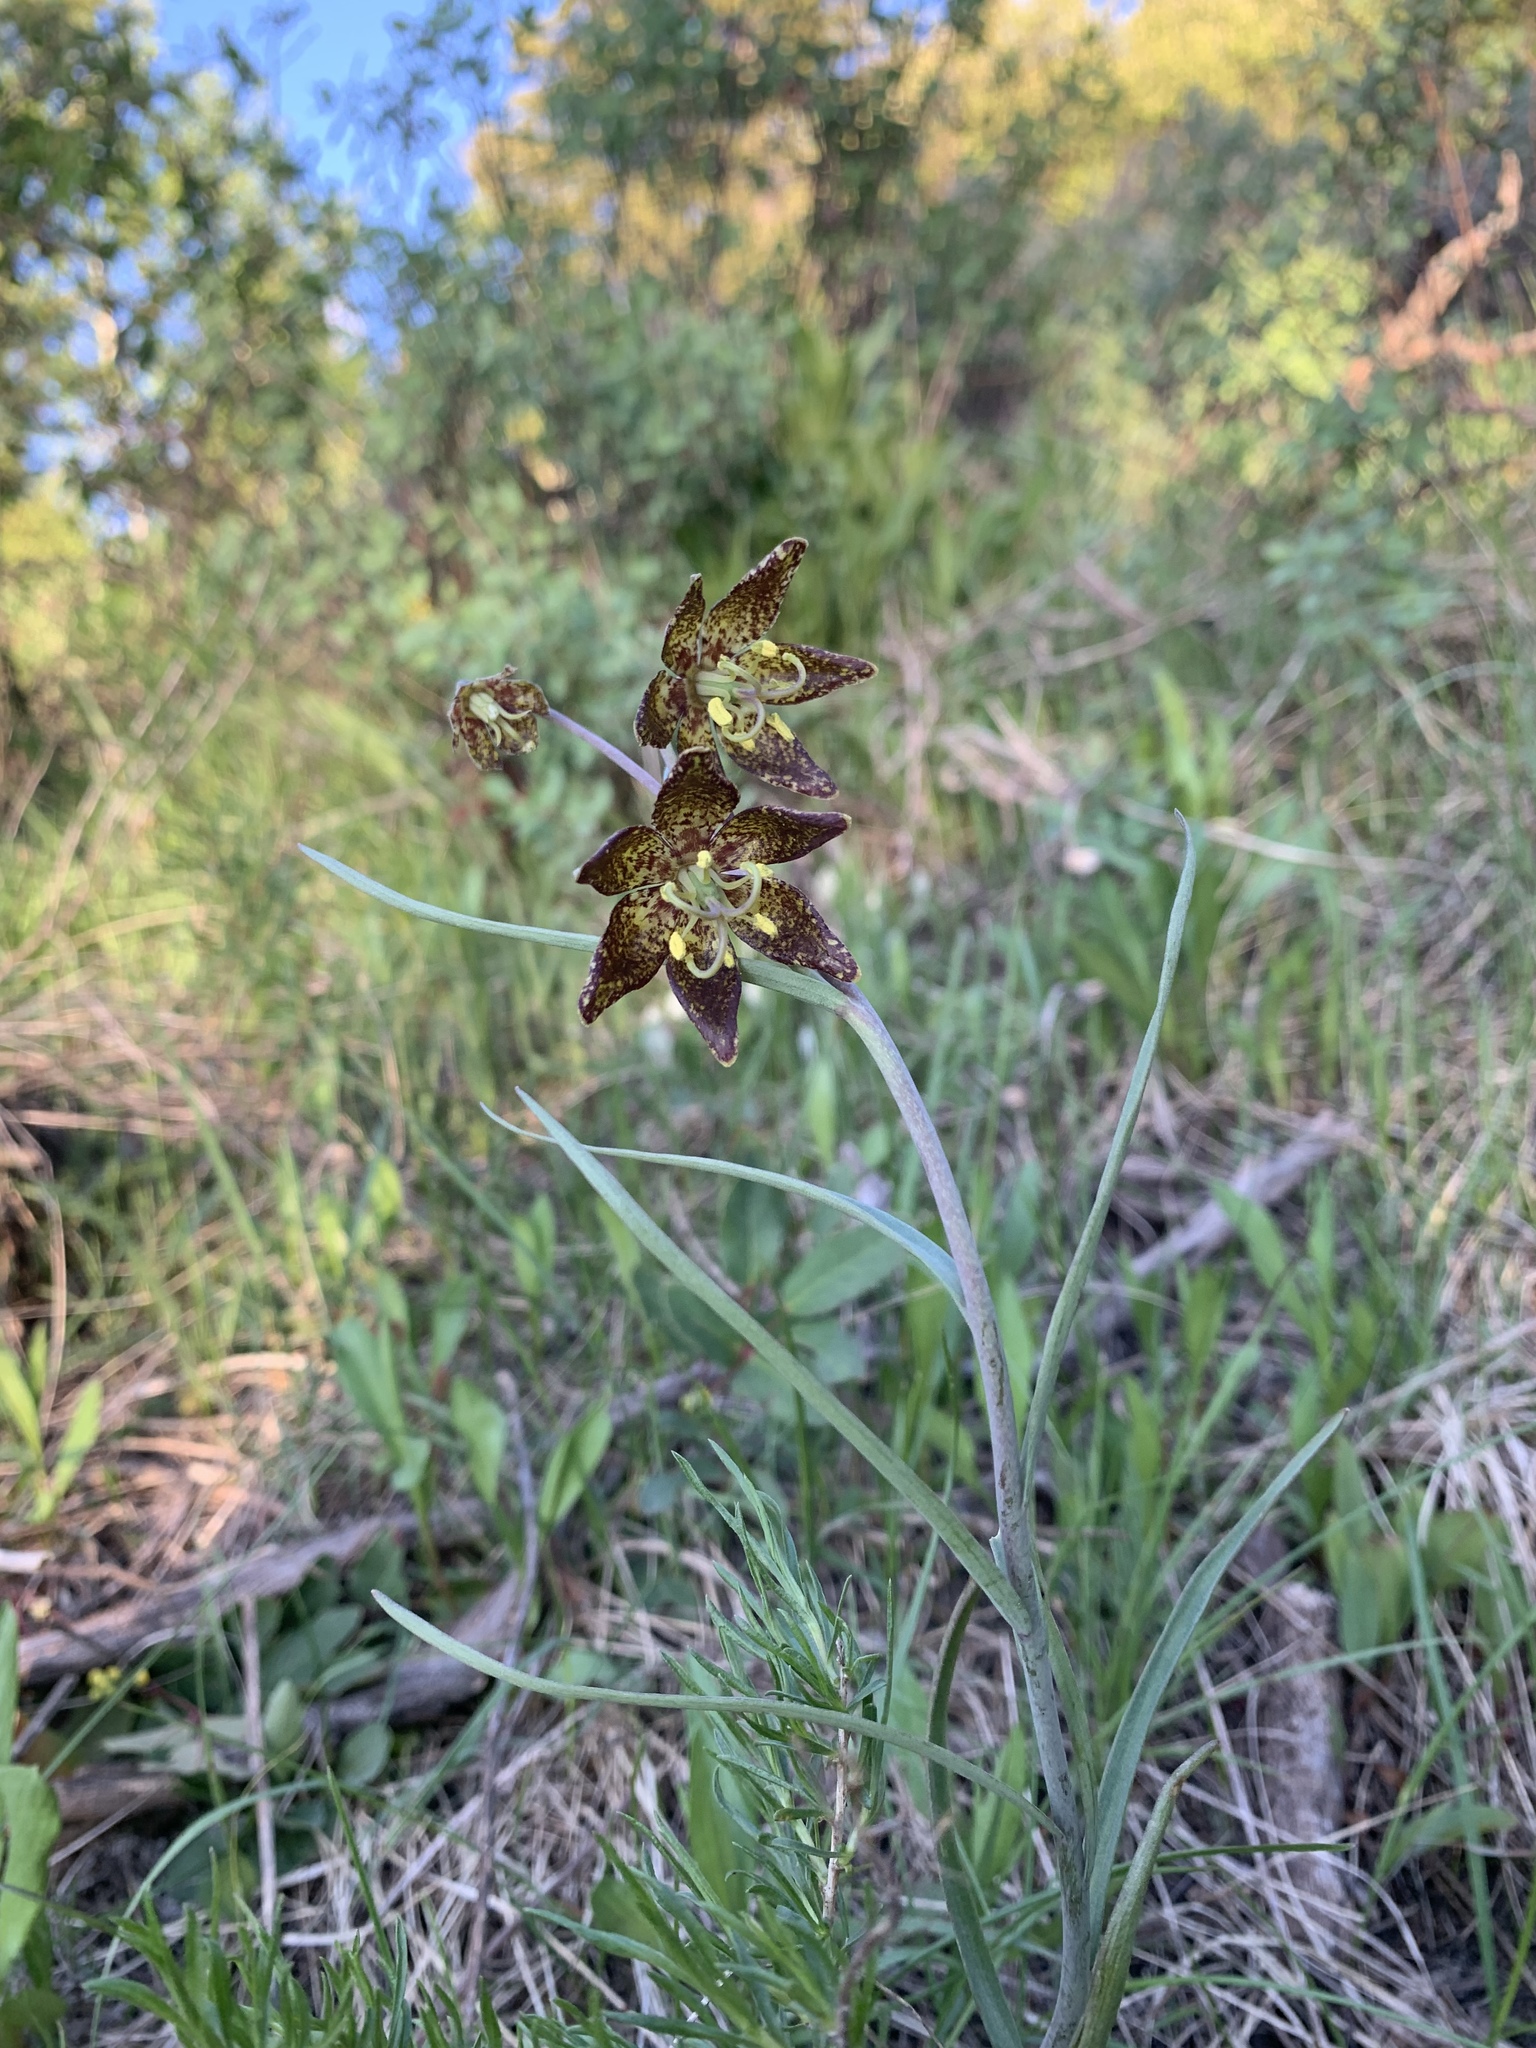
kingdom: Plantae
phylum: Tracheophyta
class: Liliopsida
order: Liliales
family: Liliaceae
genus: Fritillaria
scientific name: Fritillaria atropurpurea
